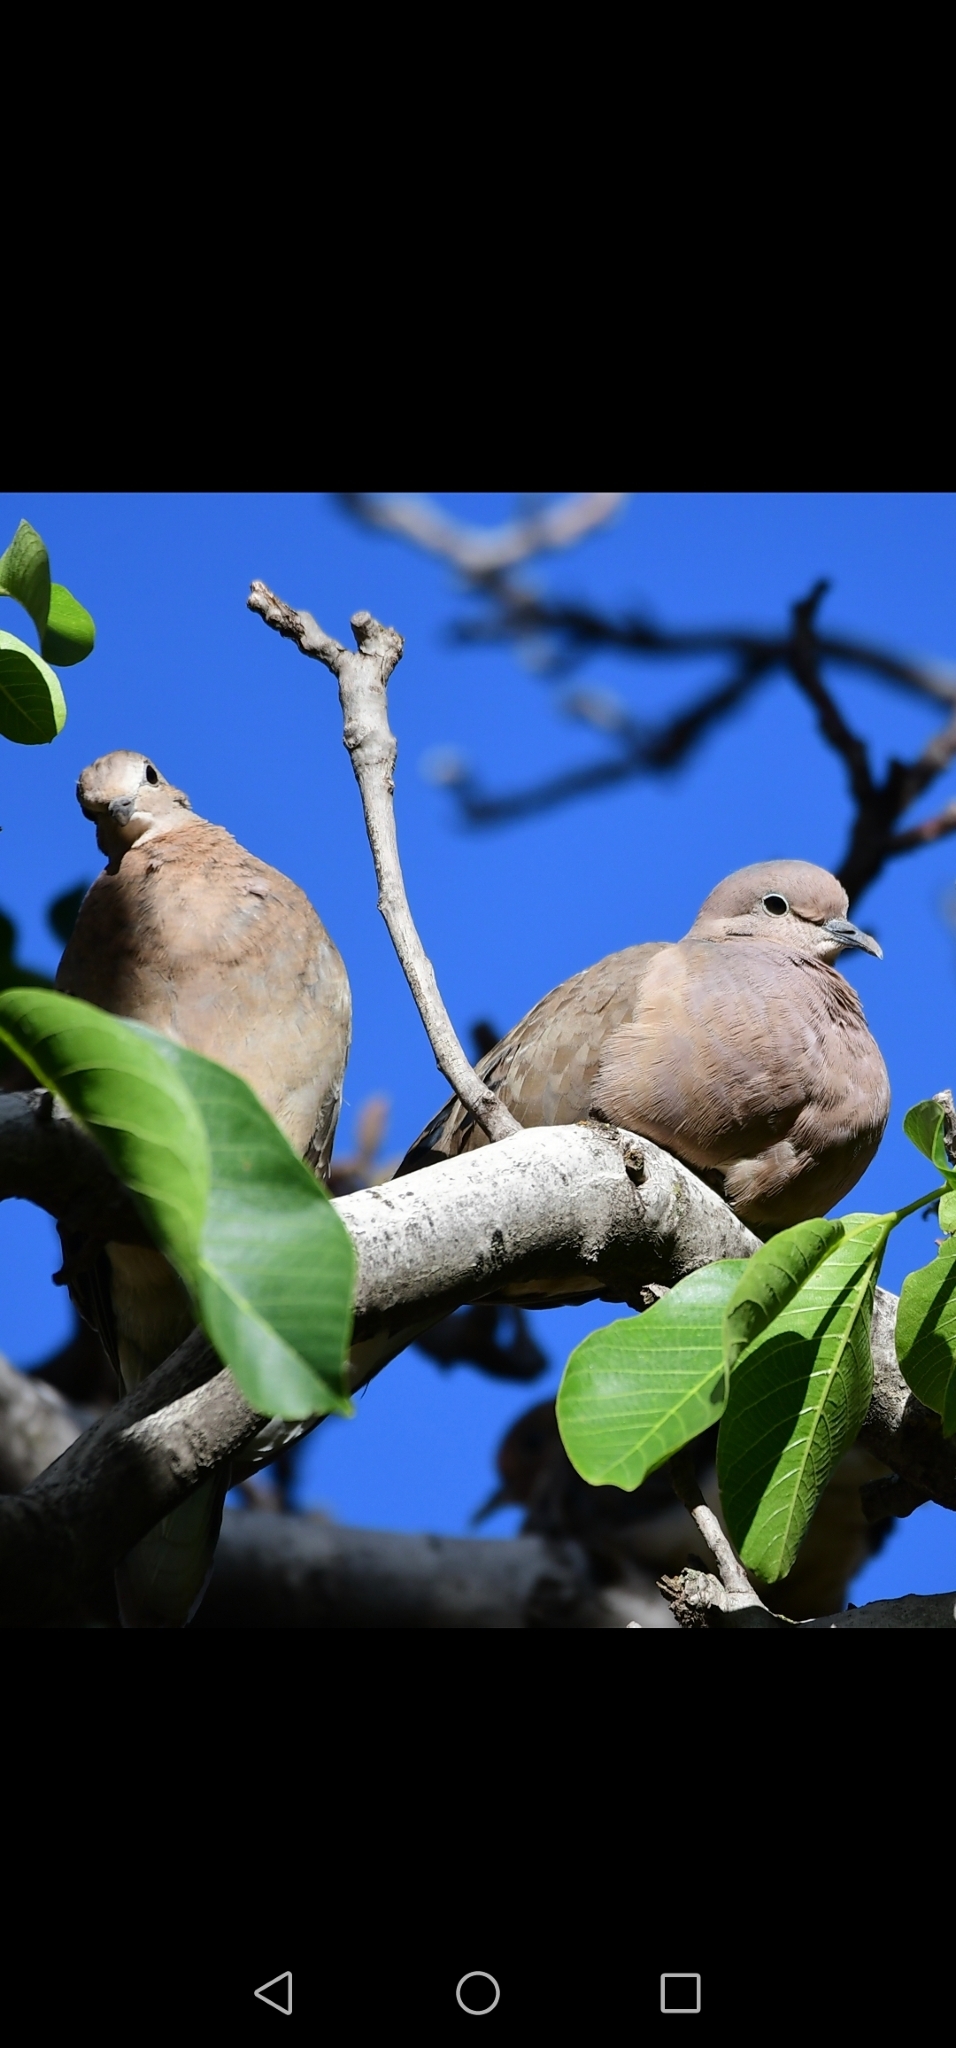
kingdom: Animalia
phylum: Chordata
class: Aves
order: Columbiformes
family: Columbidae
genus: Zenaida
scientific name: Zenaida auriculata
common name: Eared dove
